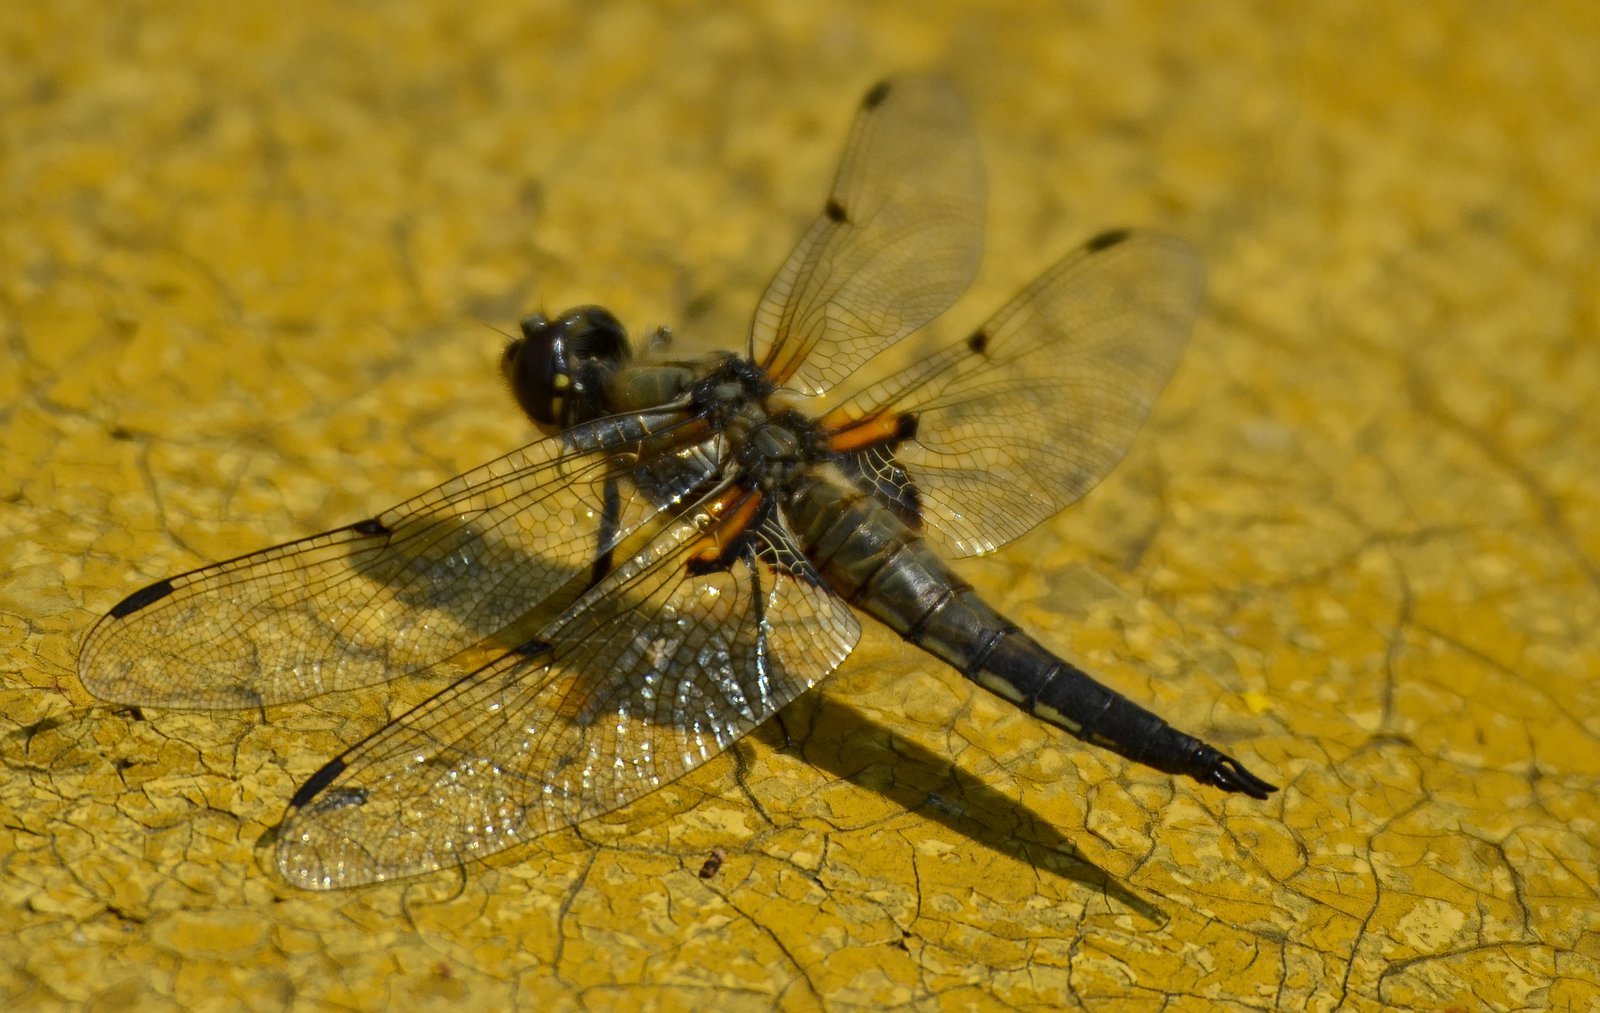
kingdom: Animalia
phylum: Arthropoda
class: Insecta
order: Odonata
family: Libellulidae
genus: Libellula
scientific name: Libellula quadrimaculata
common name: Four-spotted chaser
